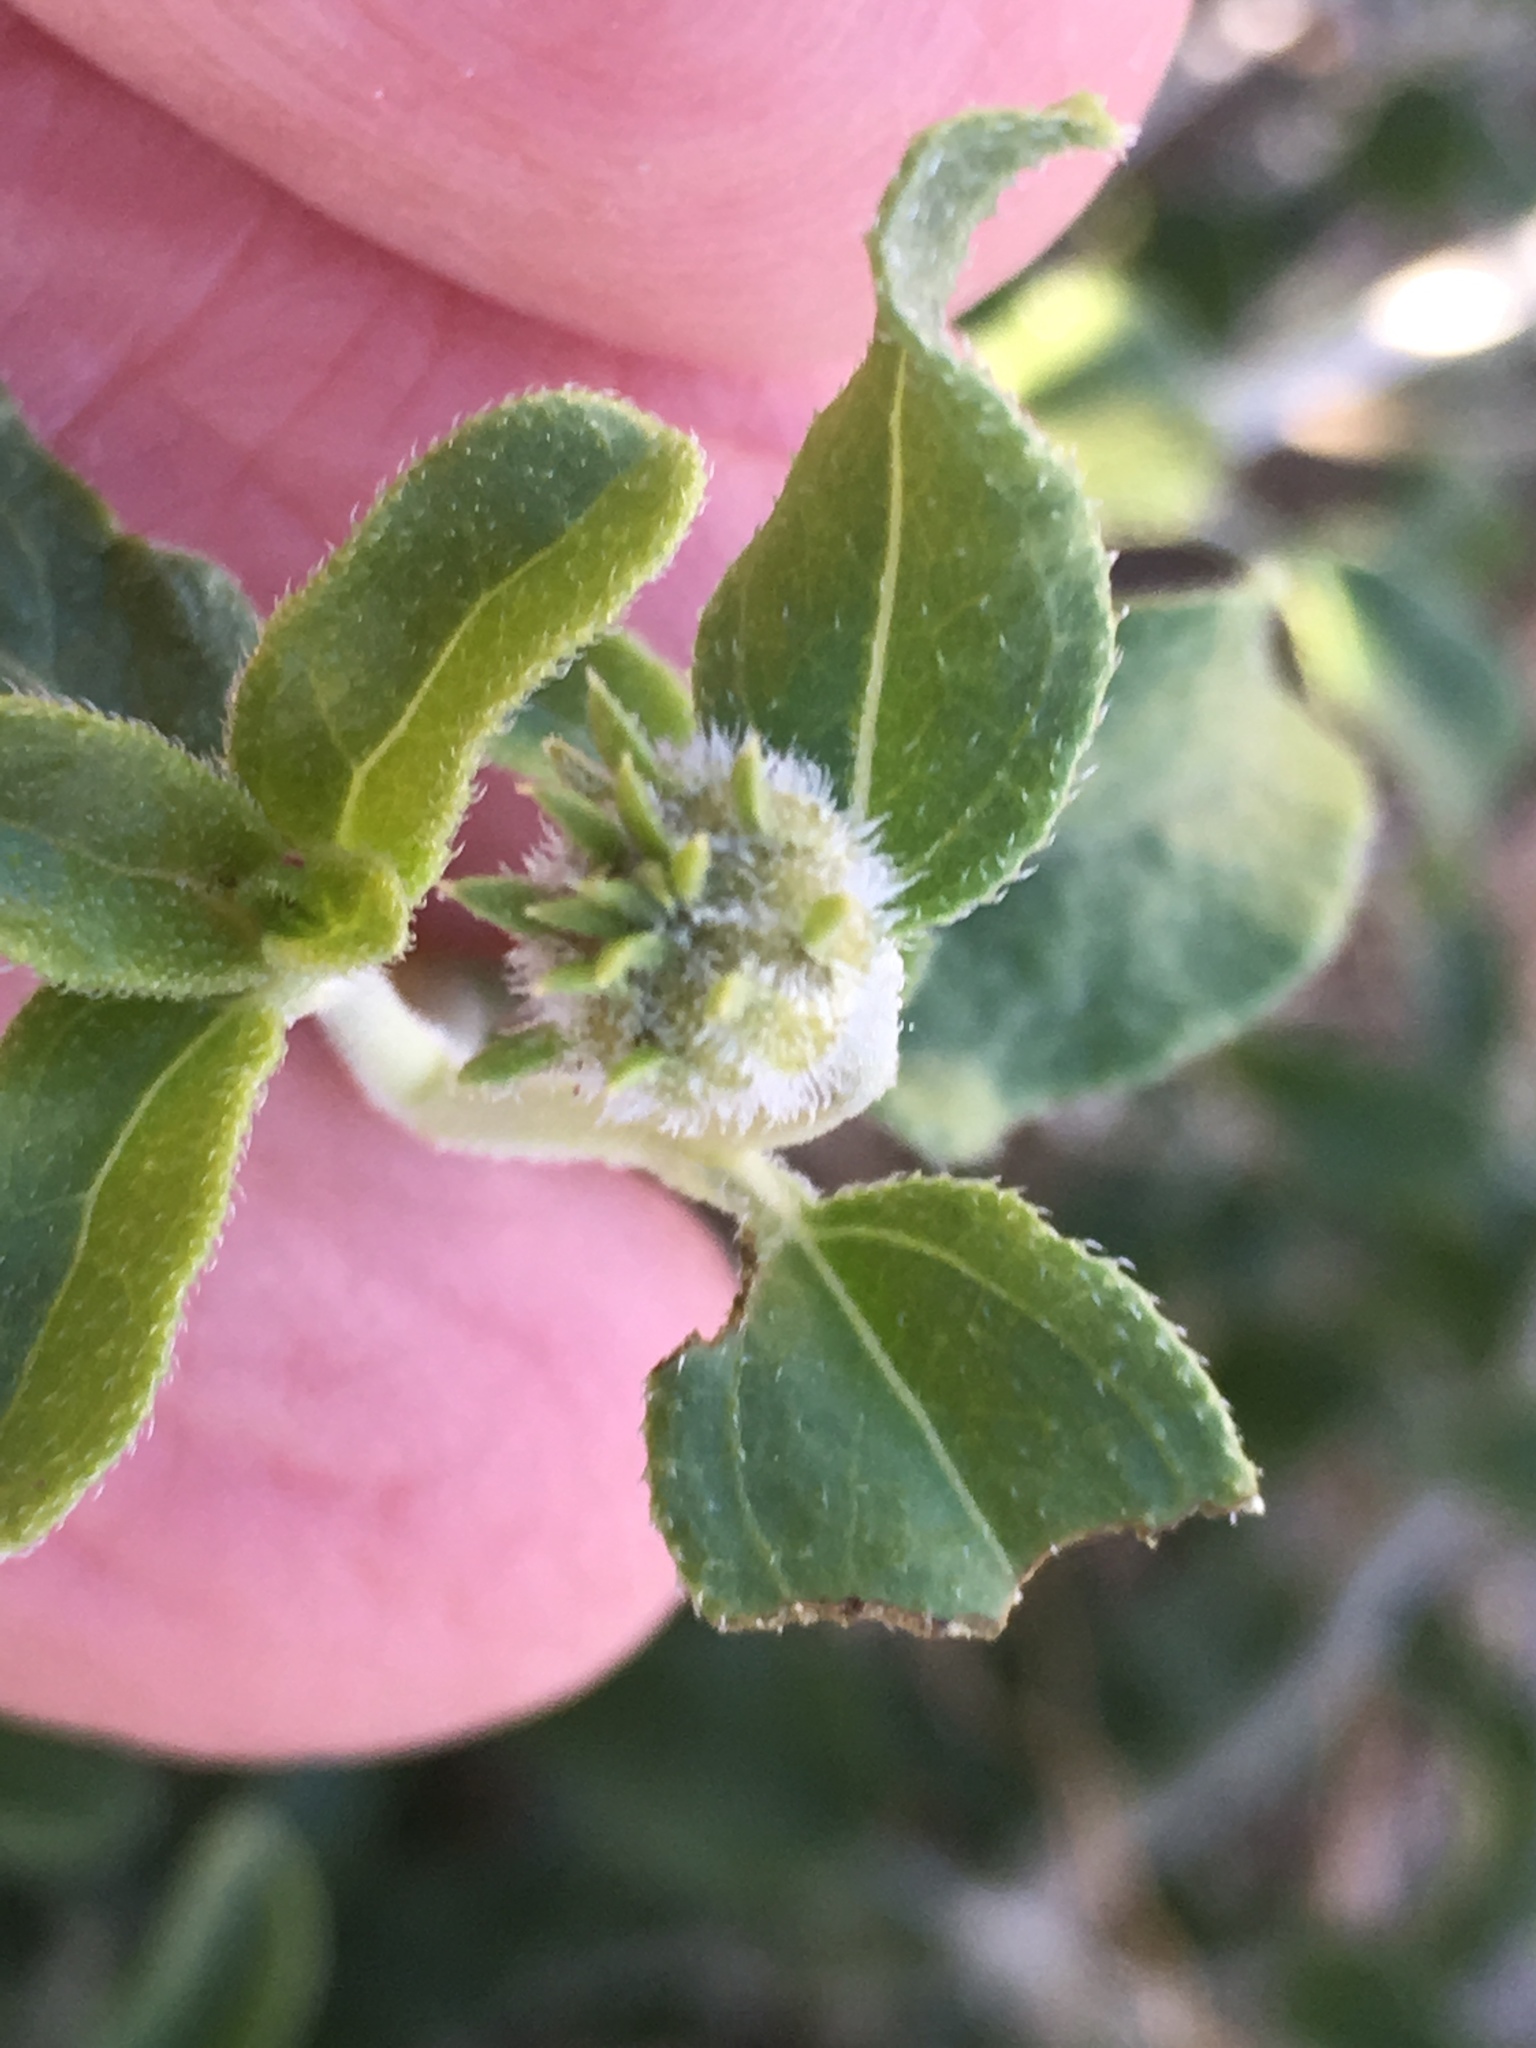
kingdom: Plantae
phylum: Tracheophyta
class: Magnoliopsida
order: Asterales
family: Asteraceae
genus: Encelia
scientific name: Encelia frutescens
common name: Bush encelia
